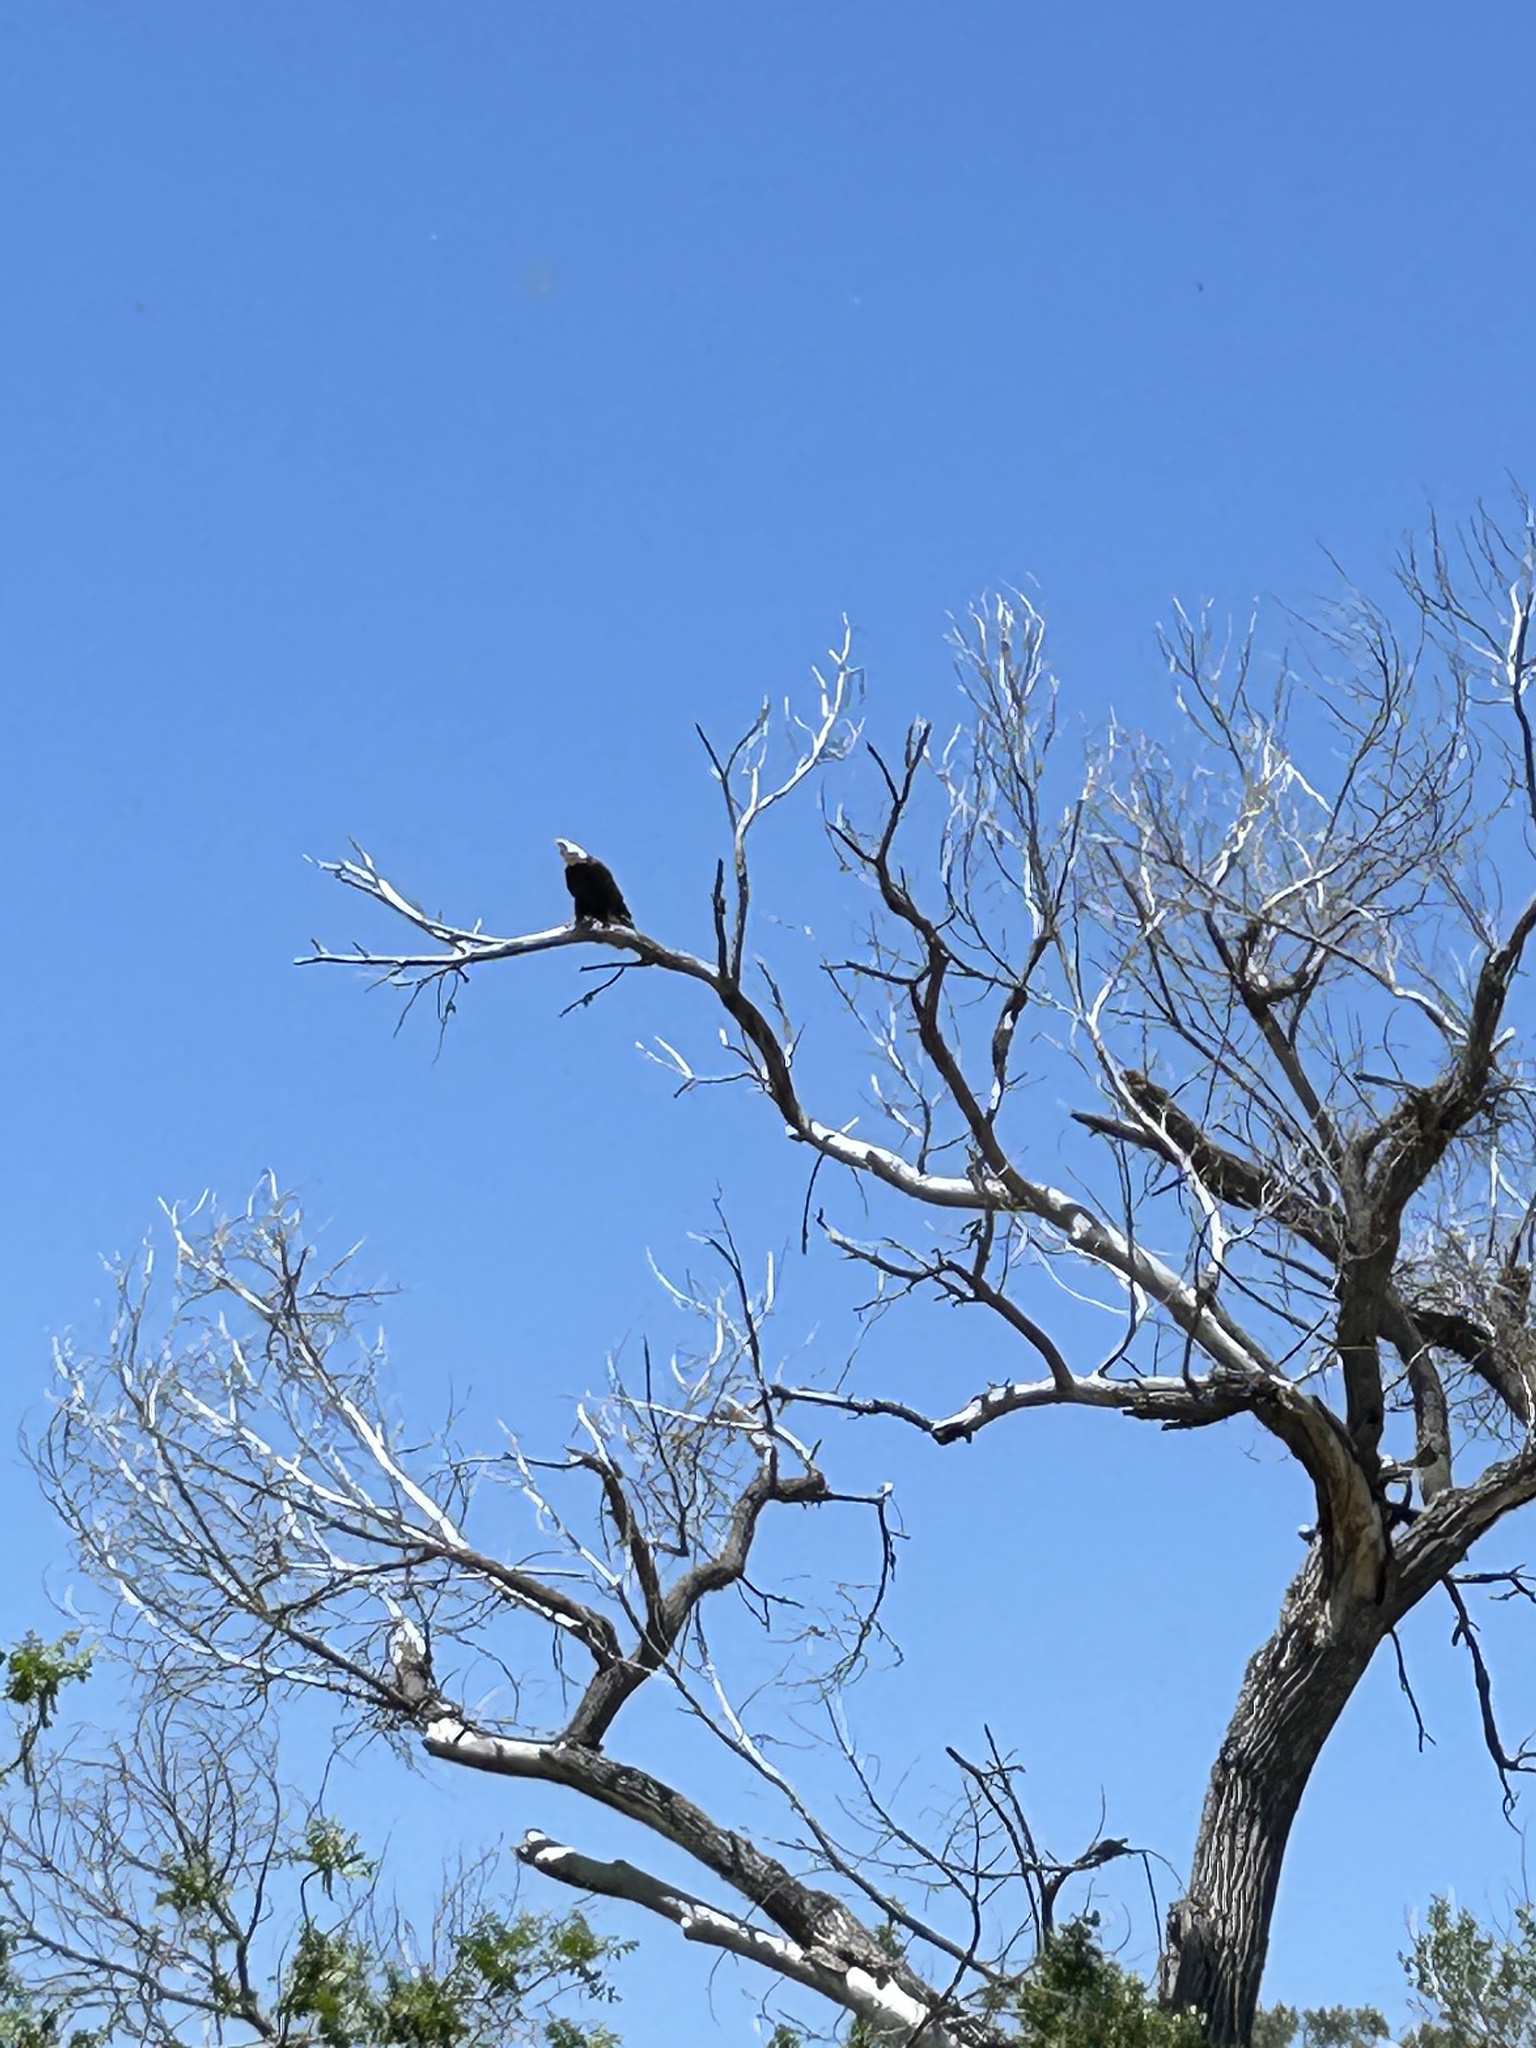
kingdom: Animalia
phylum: Chordata
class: Aves
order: Accipitriformes
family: Accipitridae
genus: Haliaeetus
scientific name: Haliaeetus leucocephalus
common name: Bald eagle
